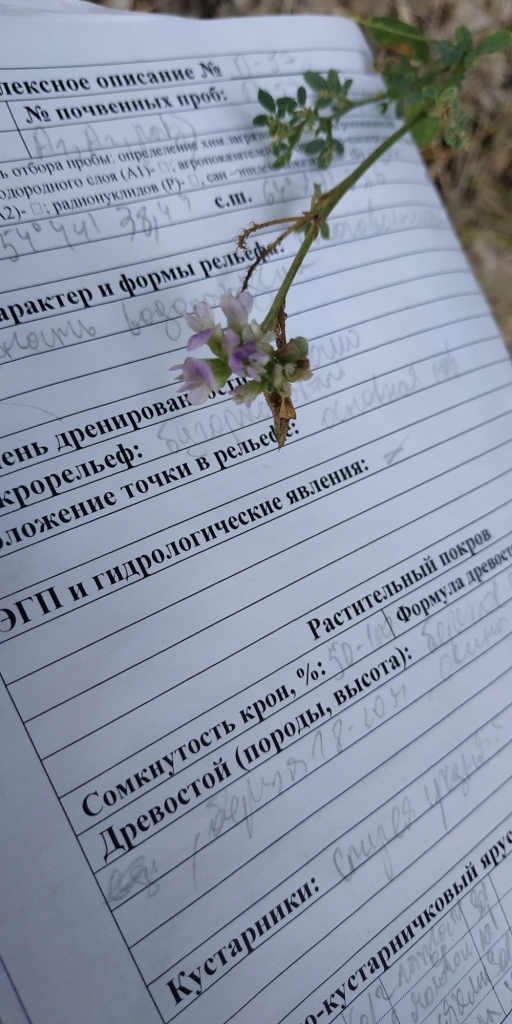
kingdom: Plantae
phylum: Tracheophyta
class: Magnoliopsida
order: Fabales
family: Fabaceae
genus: Medicago
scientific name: Medicago varia
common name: Sand lucerne
